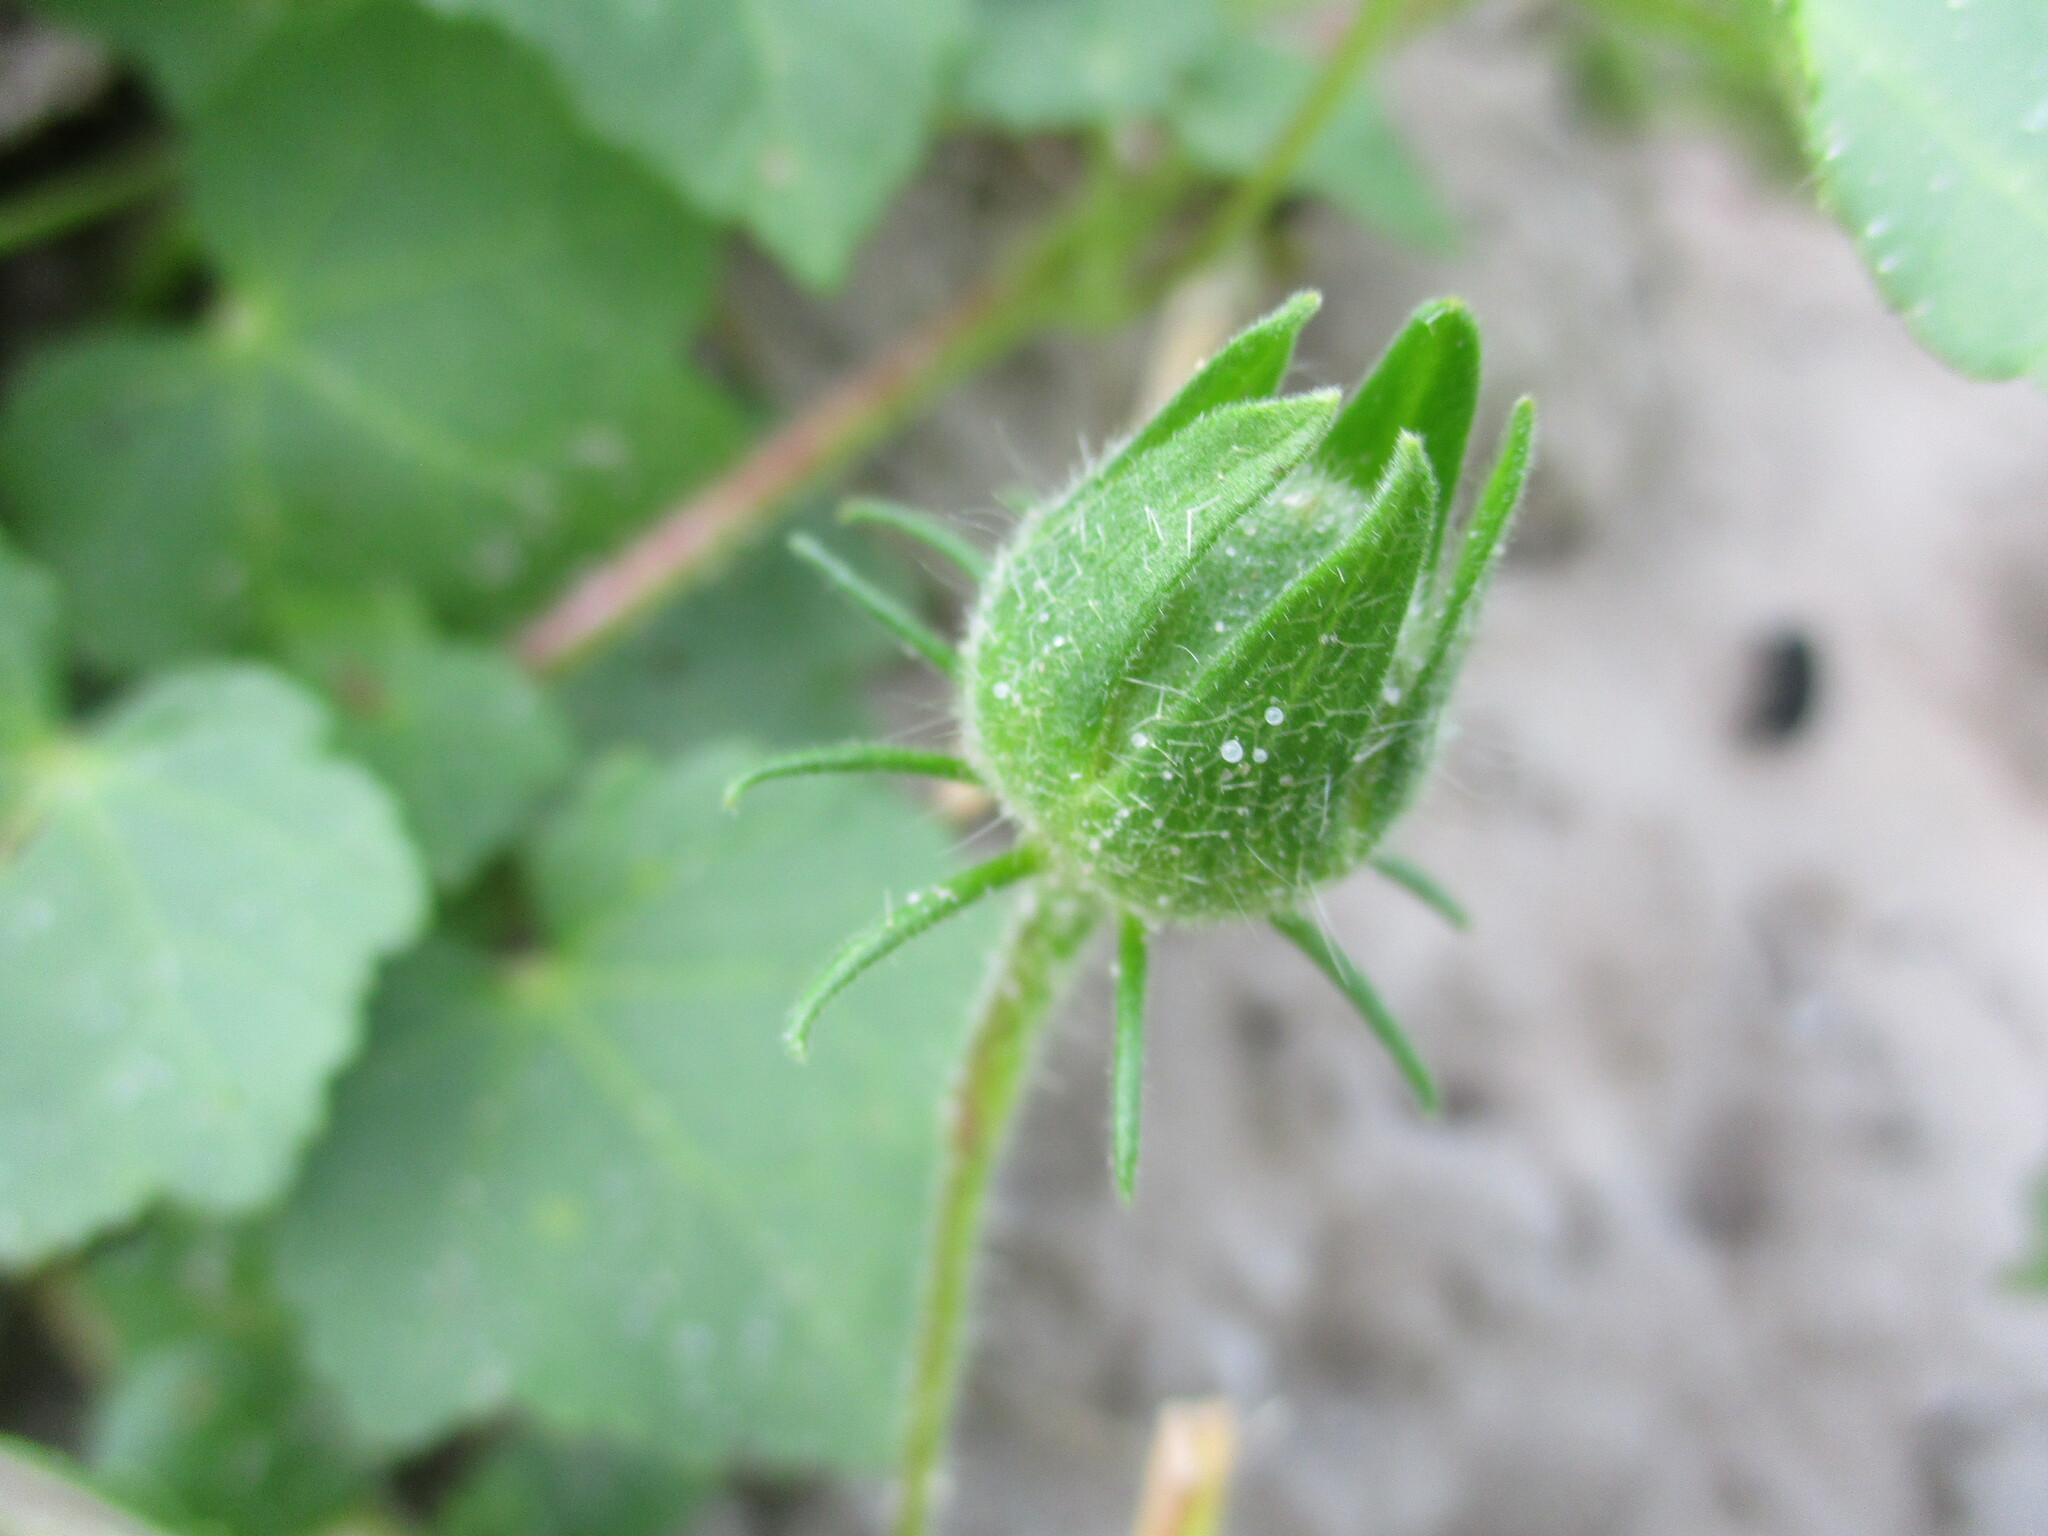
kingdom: Plantae
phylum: Tracheophyta
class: Magnoliopsida
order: Malvales
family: Malvaceae
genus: Hibiscus
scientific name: Hibiscus vitifolius
